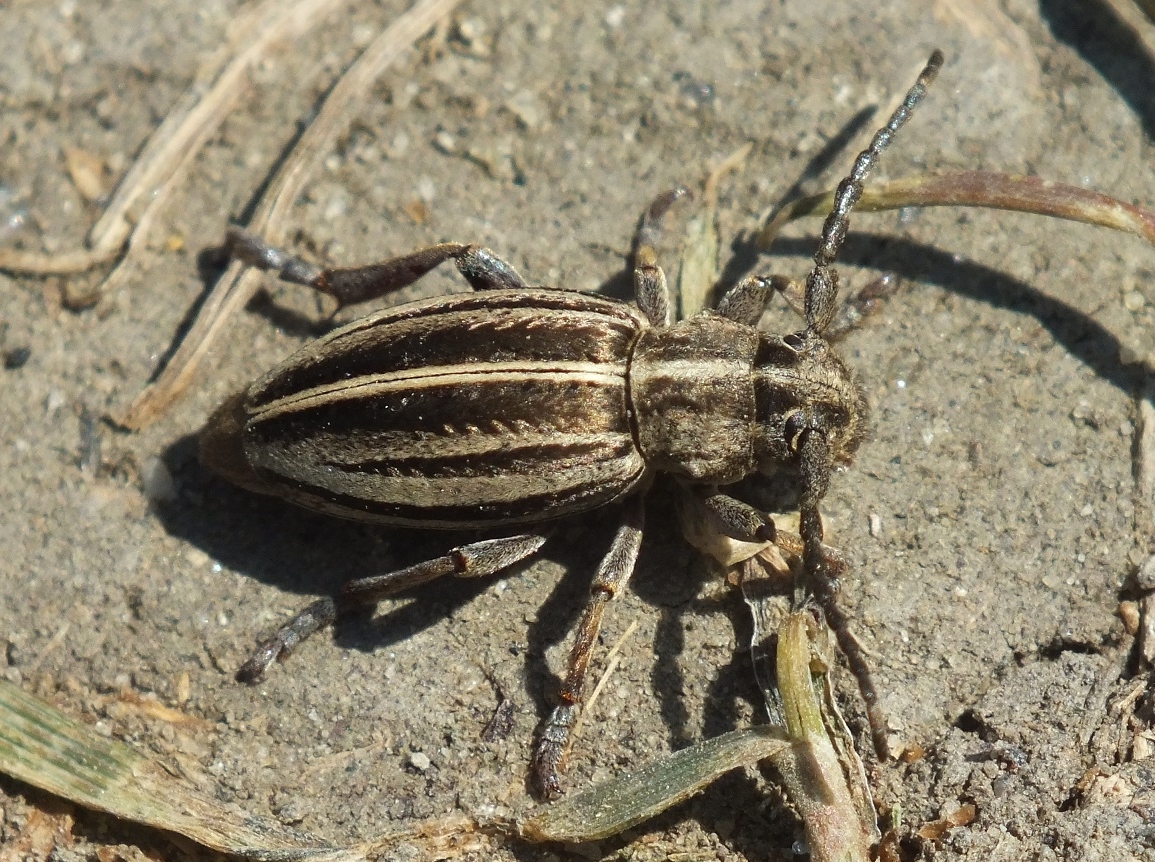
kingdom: Animalia
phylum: Arthropoda
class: Insecta
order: Coleoptera
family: Cerambycidae
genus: Dorcadion
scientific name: Dorcadion sareptanum
